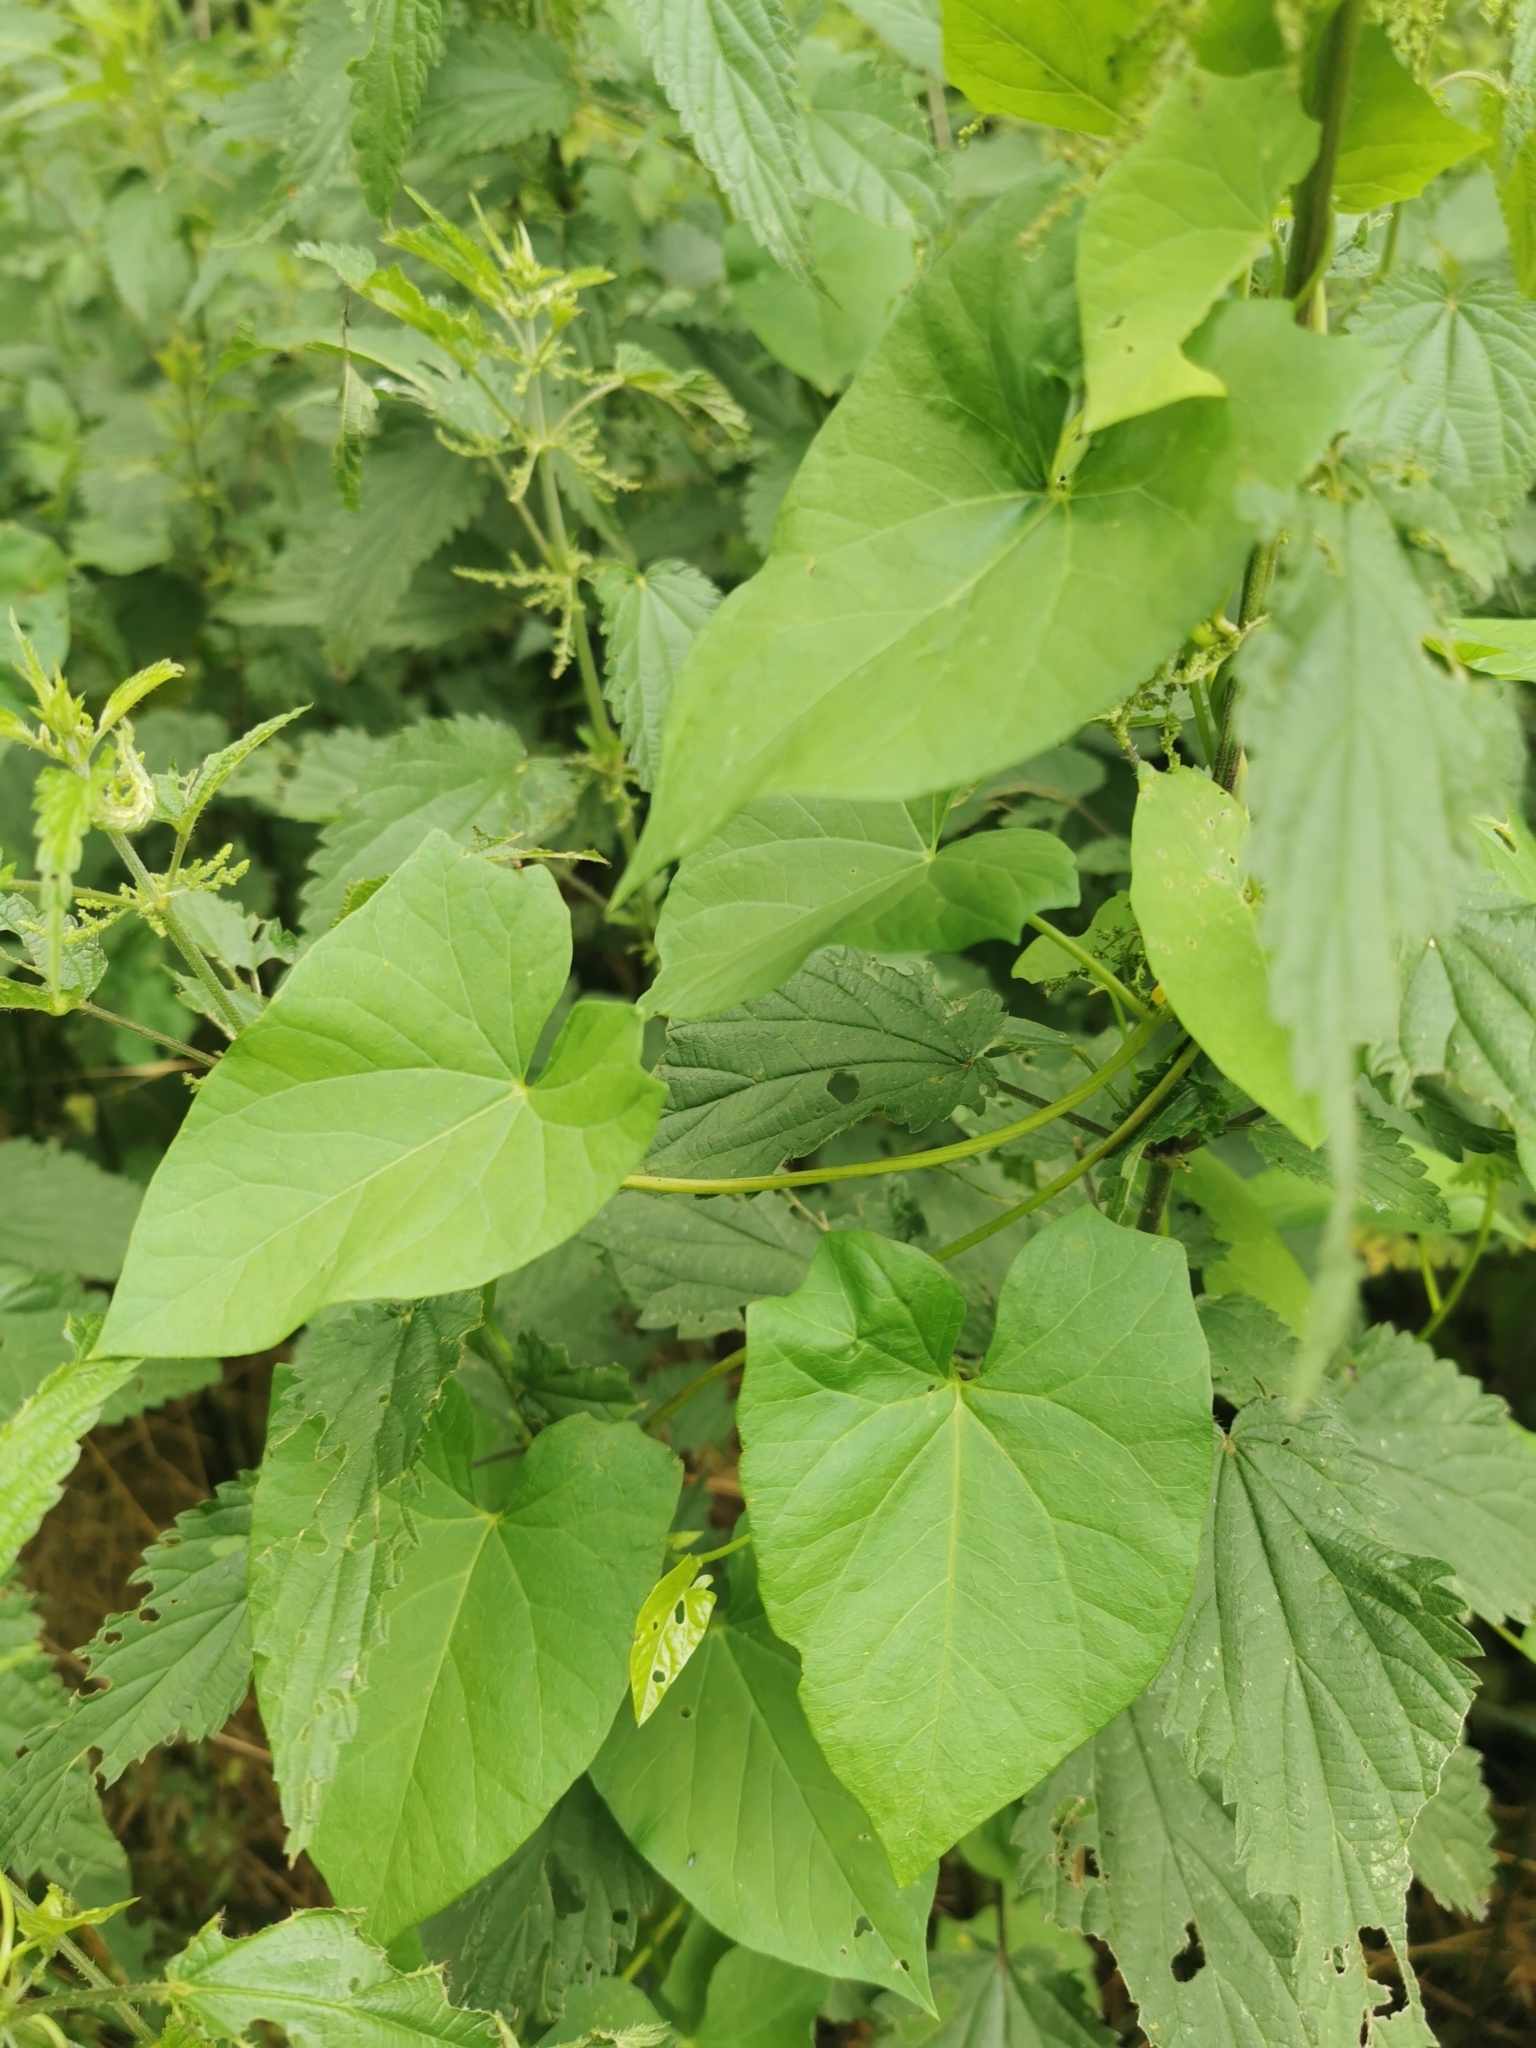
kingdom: Plantae
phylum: Tracheophyta
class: Magnoliopsida
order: Solanales
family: Convolvulaceae
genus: Calystegia
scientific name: Calystegia sepium
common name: Hedge bindweed
